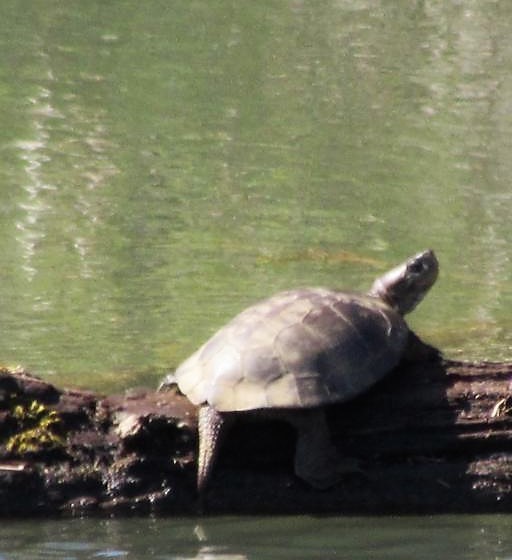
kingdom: Animalia
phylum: Chordata
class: Testudines
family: Emydidae
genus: Actinemys
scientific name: Actinemys marmorata
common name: Western pond turtle
